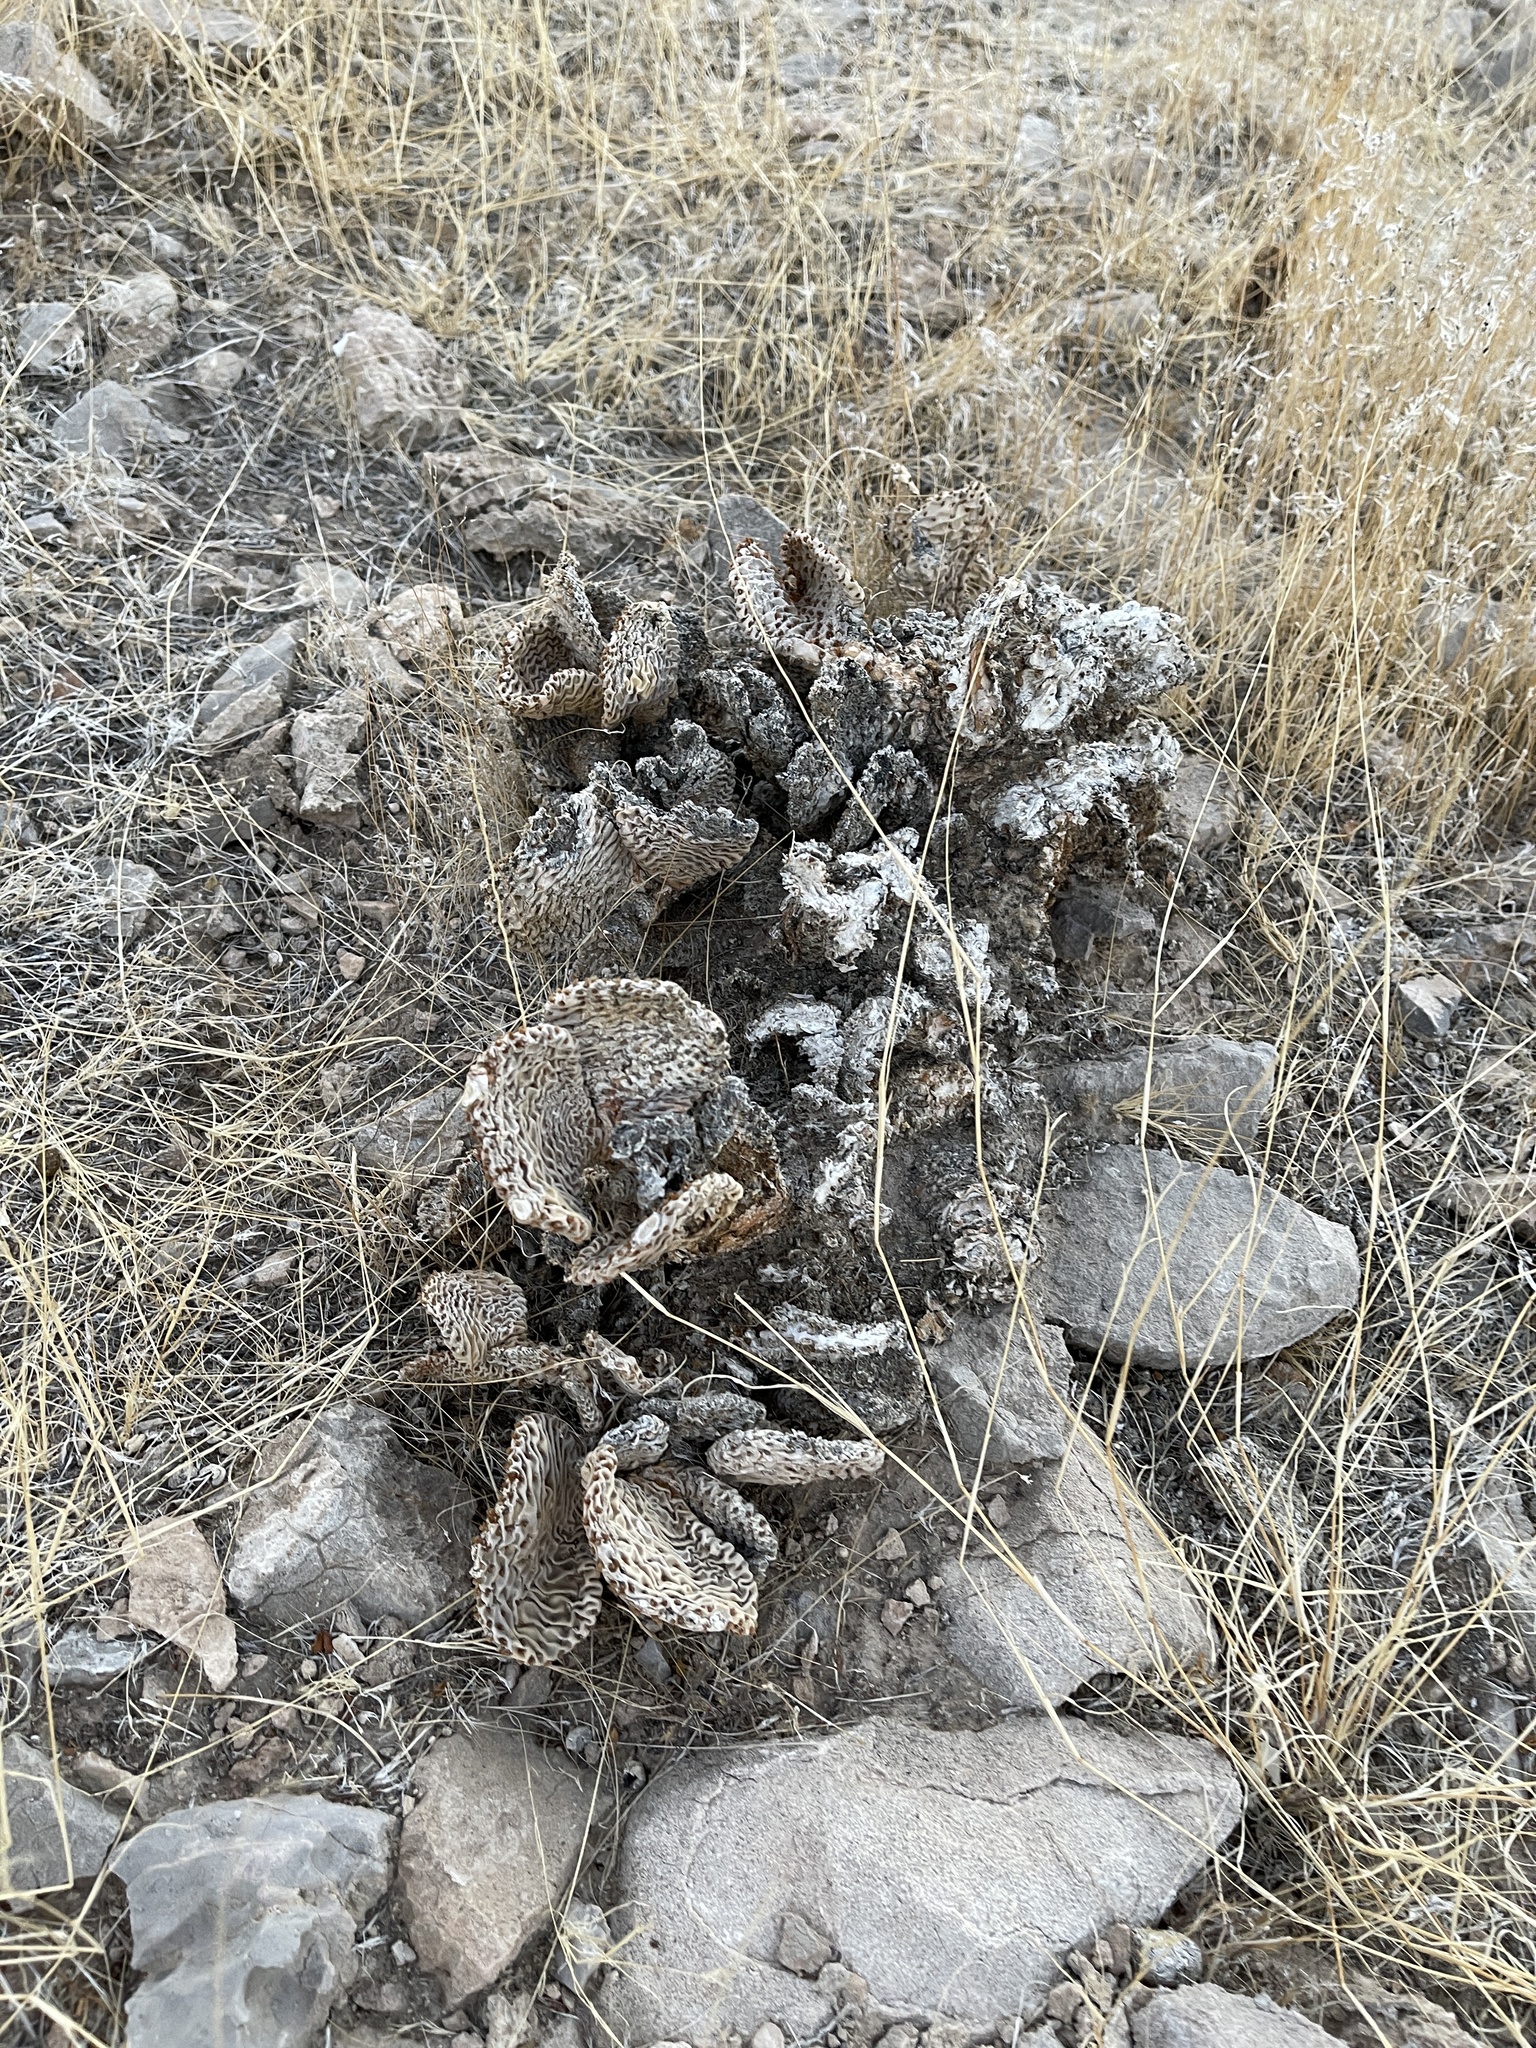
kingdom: Plantae
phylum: Tracheophyta
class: Magnoliopsida
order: Caryophyllales
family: Cactaceae
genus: Opuntia
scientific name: Opuntia basilaris
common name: Beavertail prickly-pear
